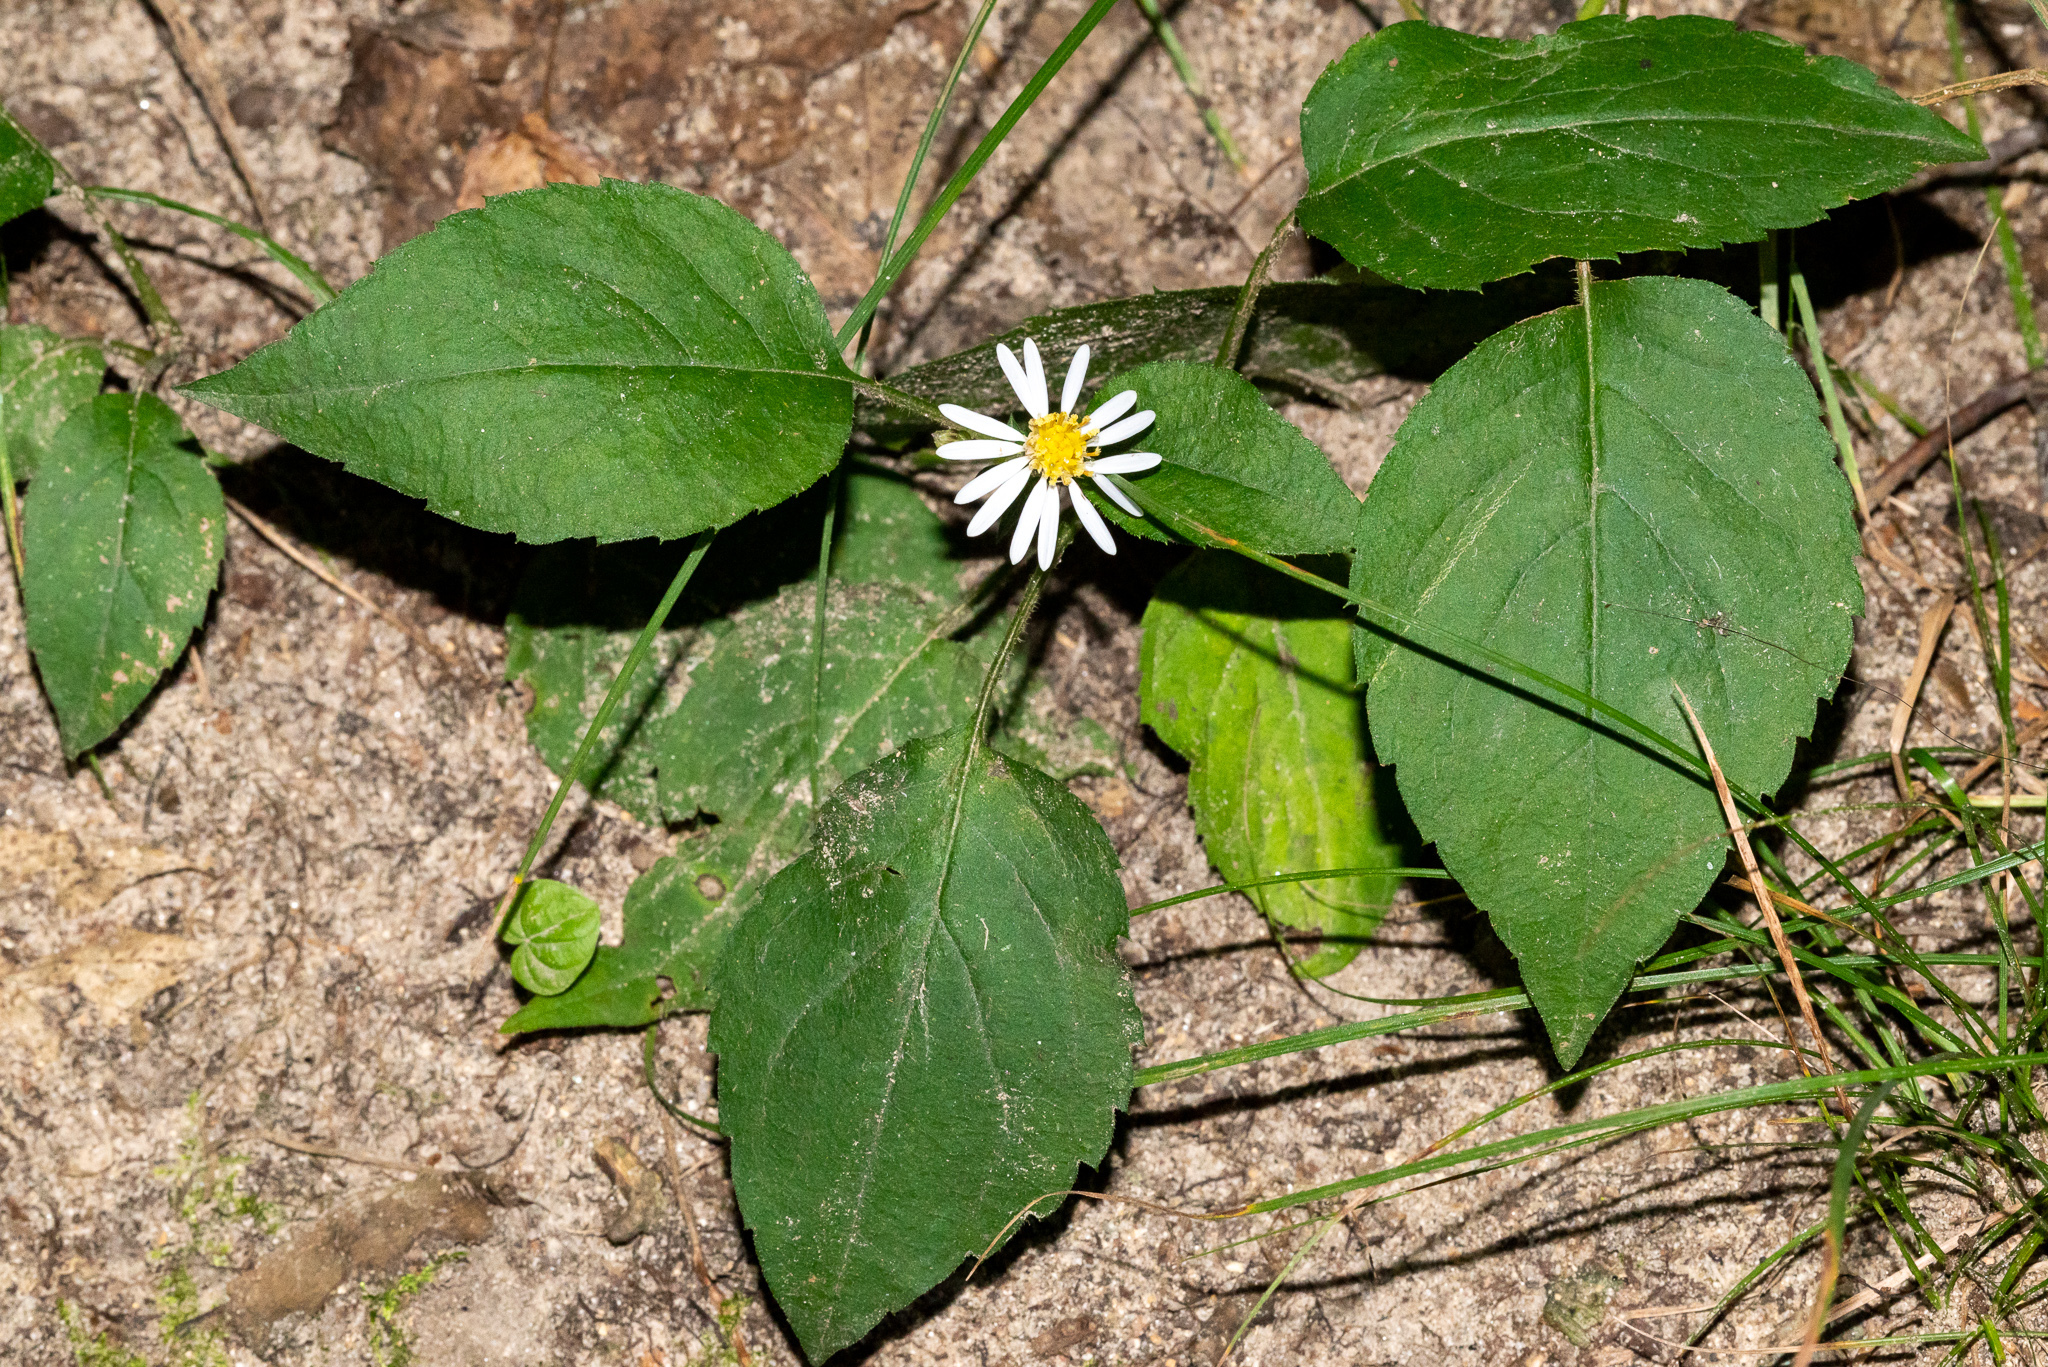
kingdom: Plantae
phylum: Tracheophyta
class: Magnoliopsida
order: Asterales
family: Asteraceae
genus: Eurybia
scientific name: Eurybia macrophylla
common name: Big-leaved aster
